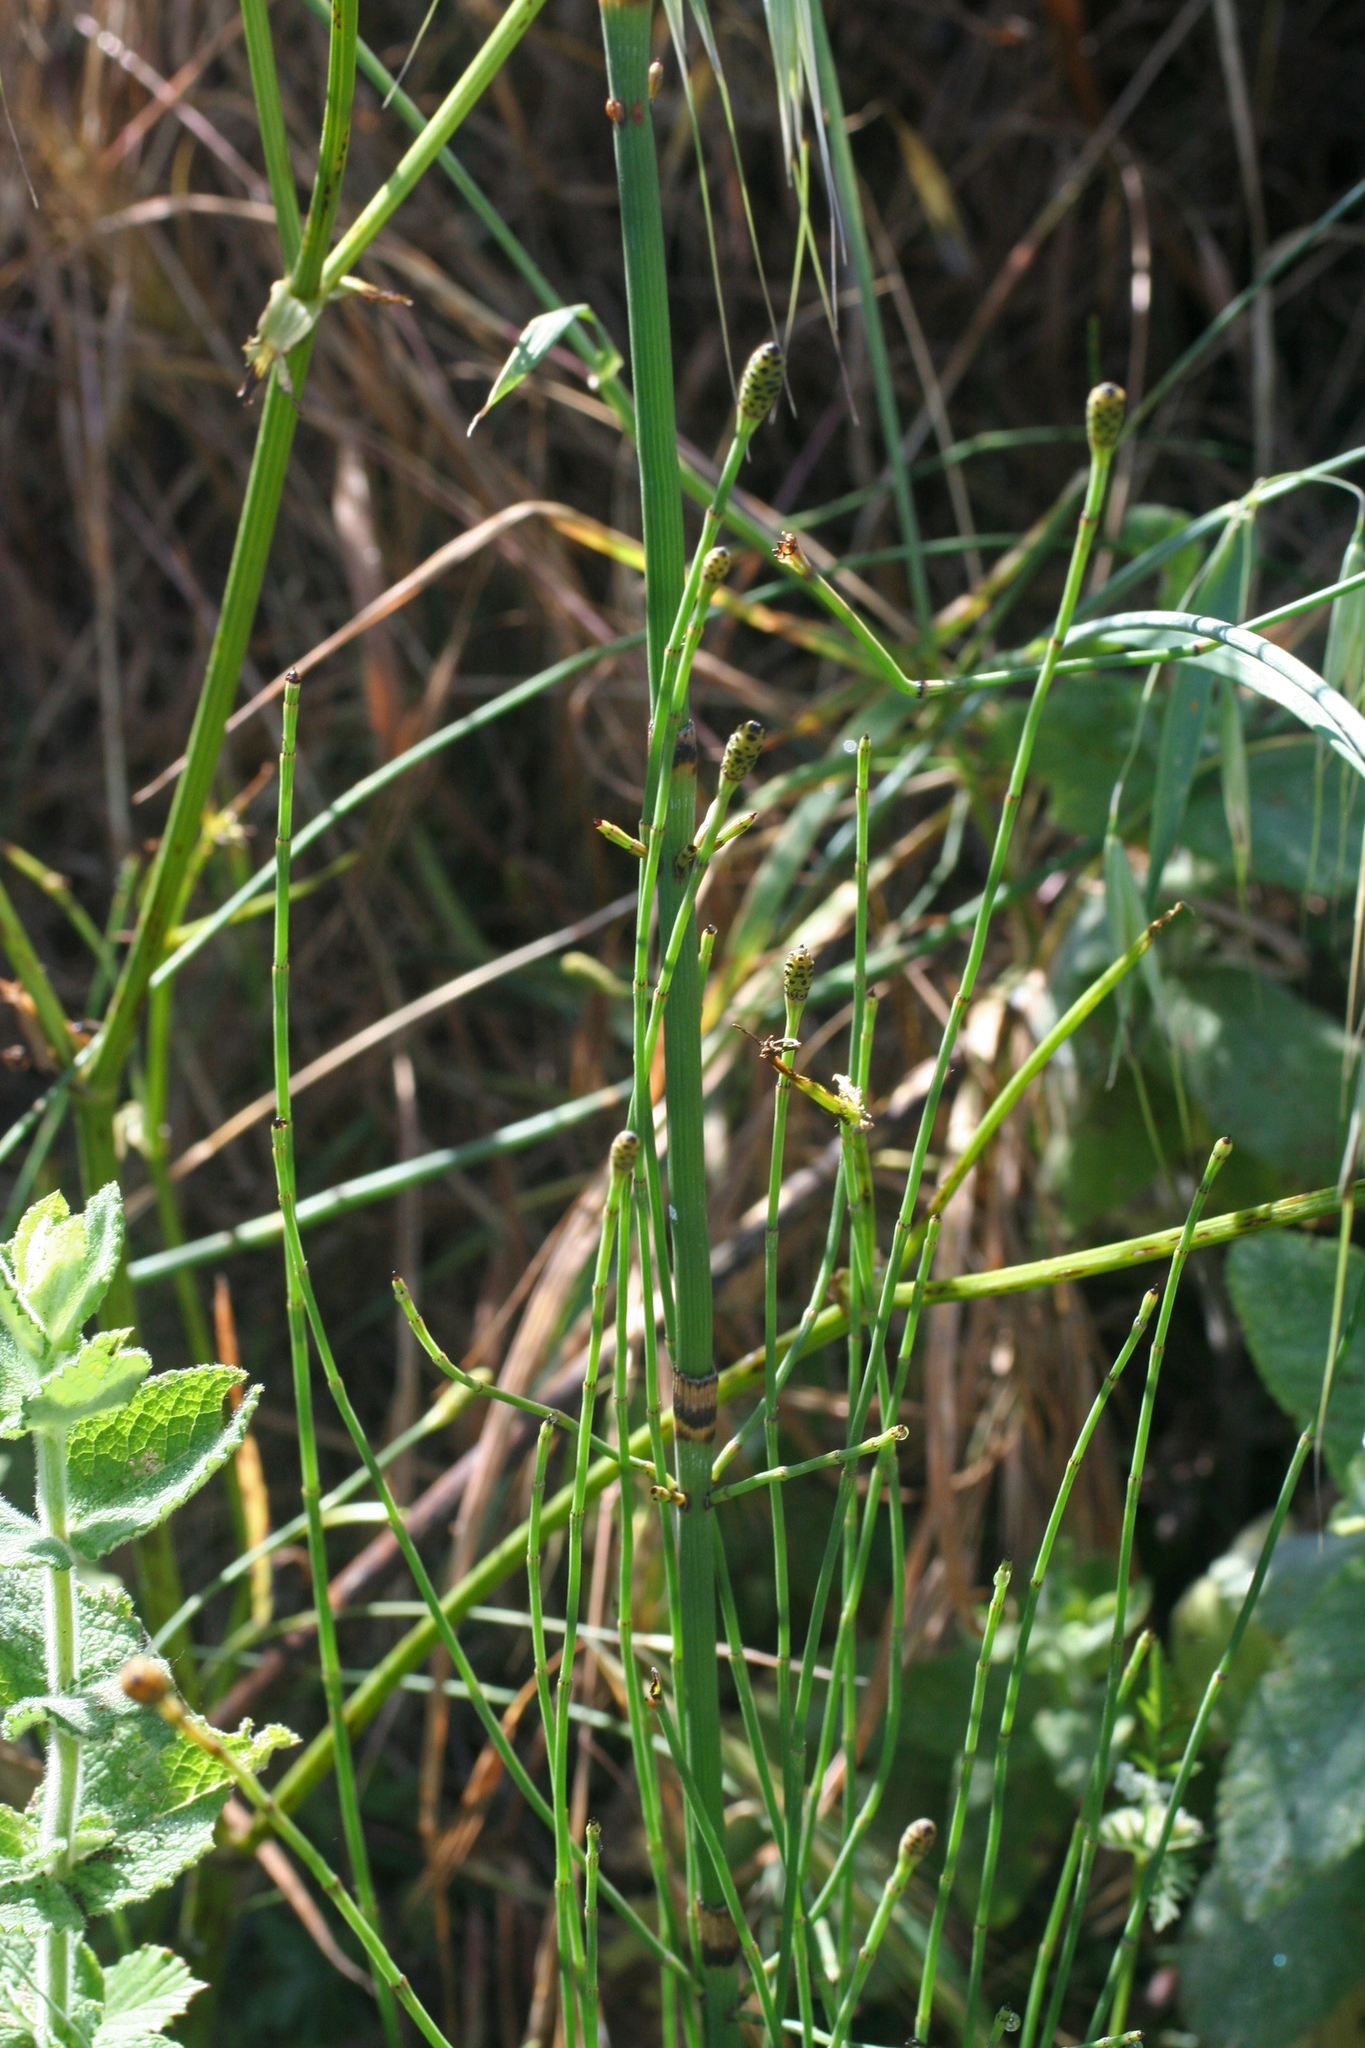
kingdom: Plantae
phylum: Tracheophyta
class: Polypodiopsida
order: Equisetales
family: Equisetaceae
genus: Equisetum
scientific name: Equisetum ramosissimum
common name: Branched horsetail
